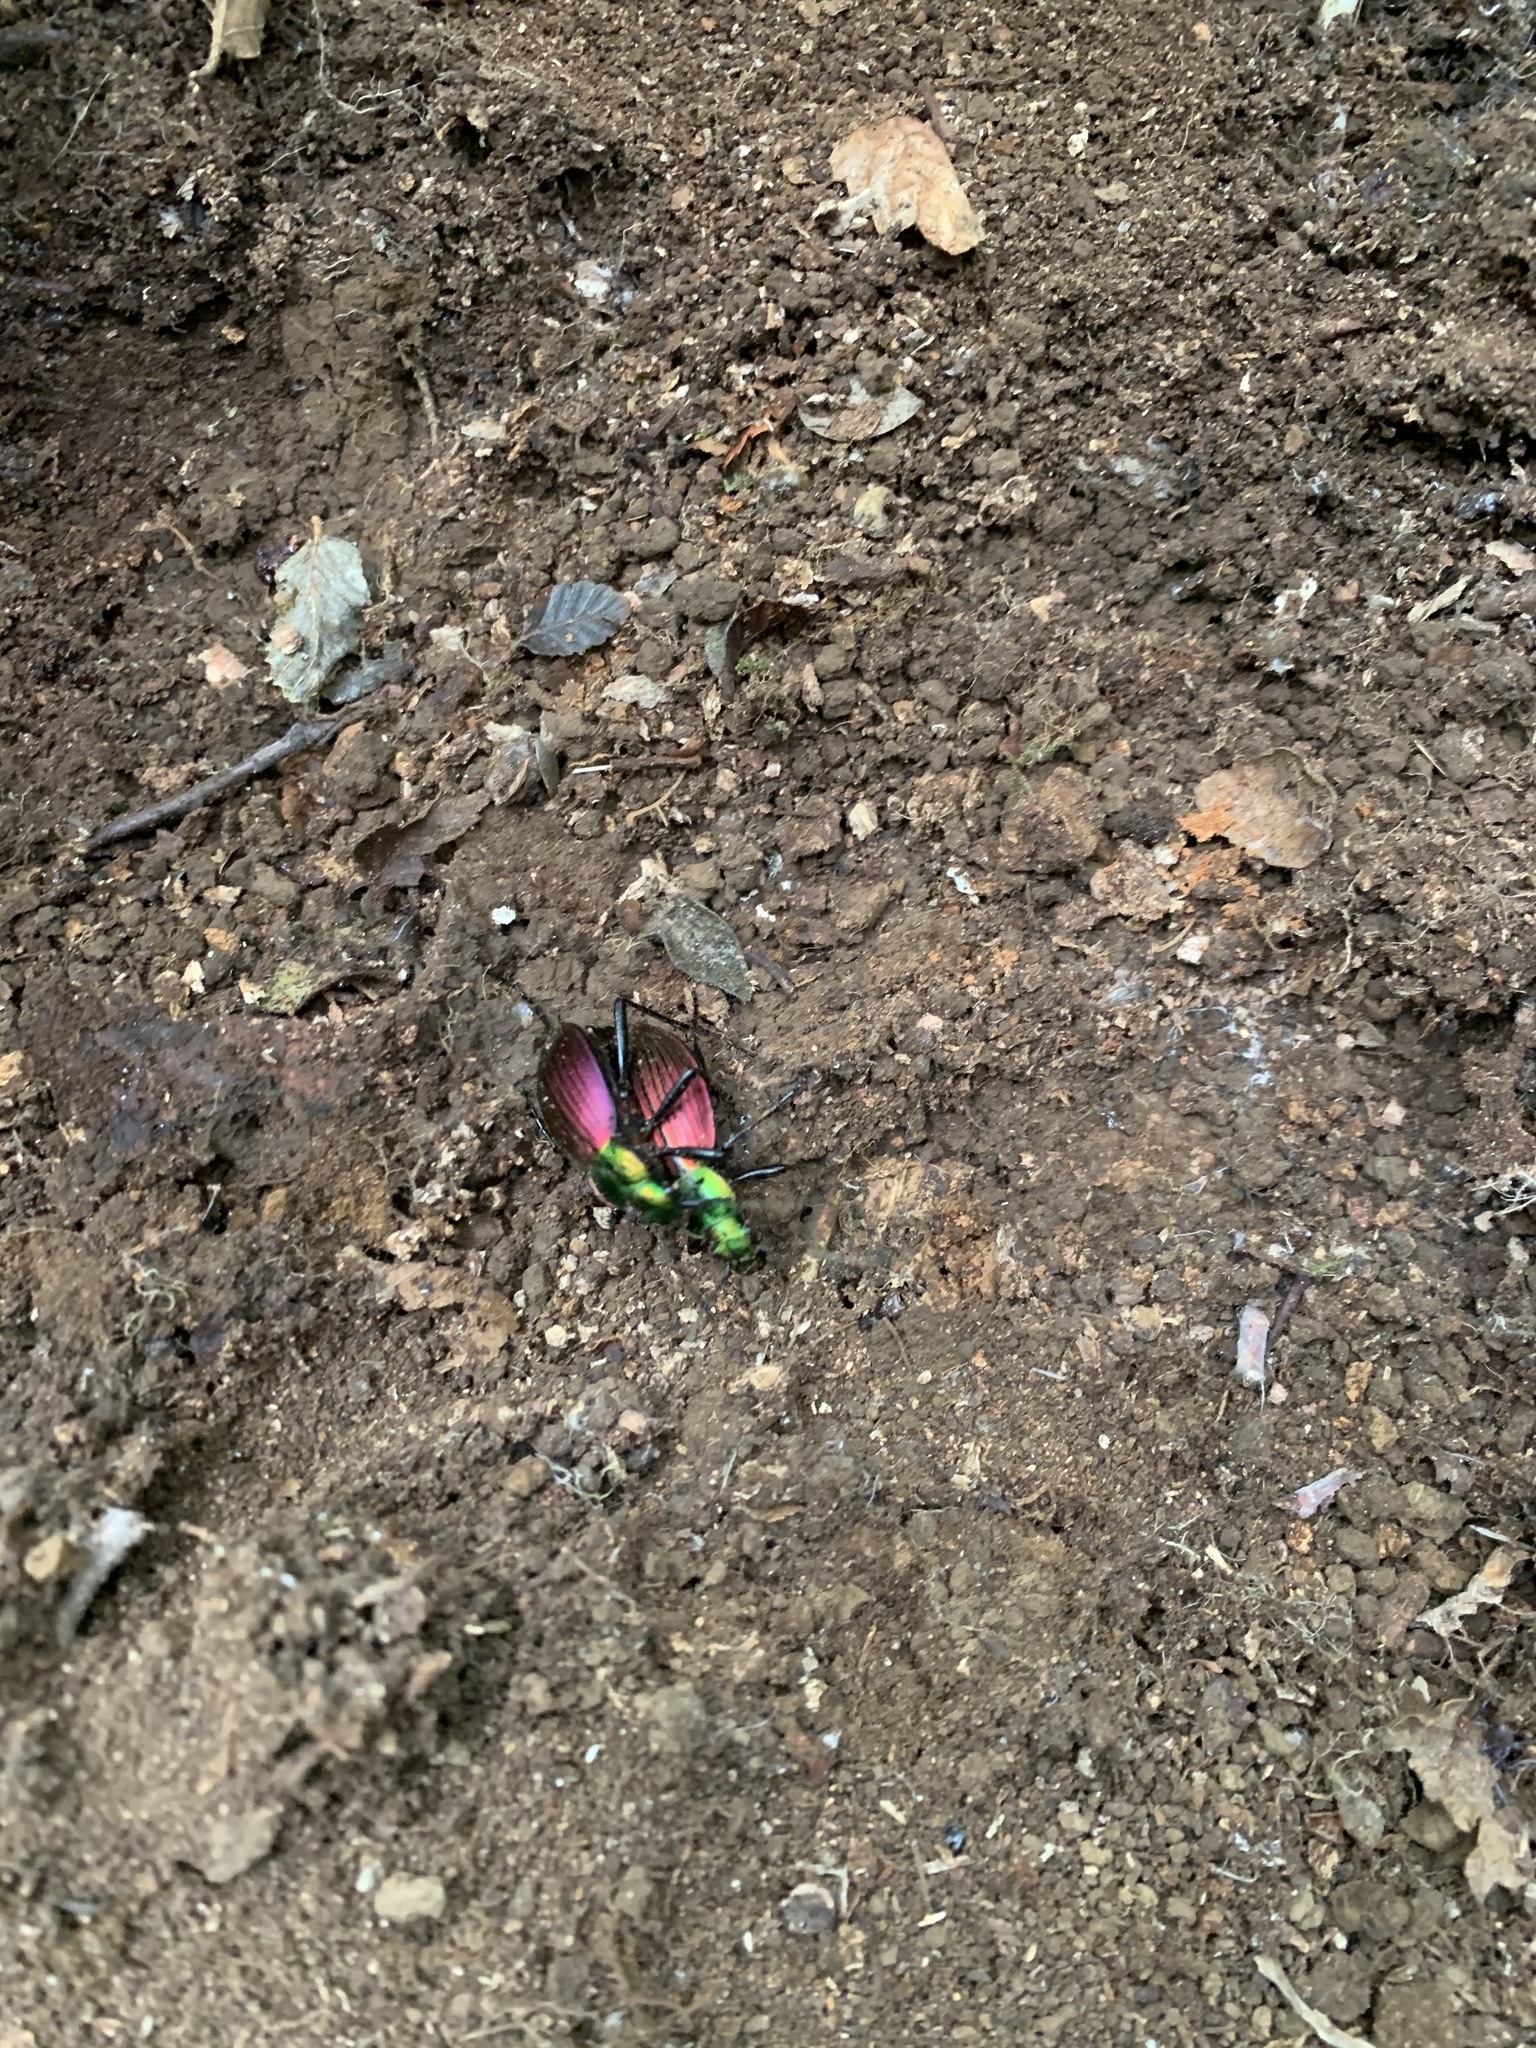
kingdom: Animalia
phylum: Arthropoda
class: Insecta
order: Coleoptera
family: Carabidae
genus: Ceroglossus
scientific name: Ceroglossus chilensis
